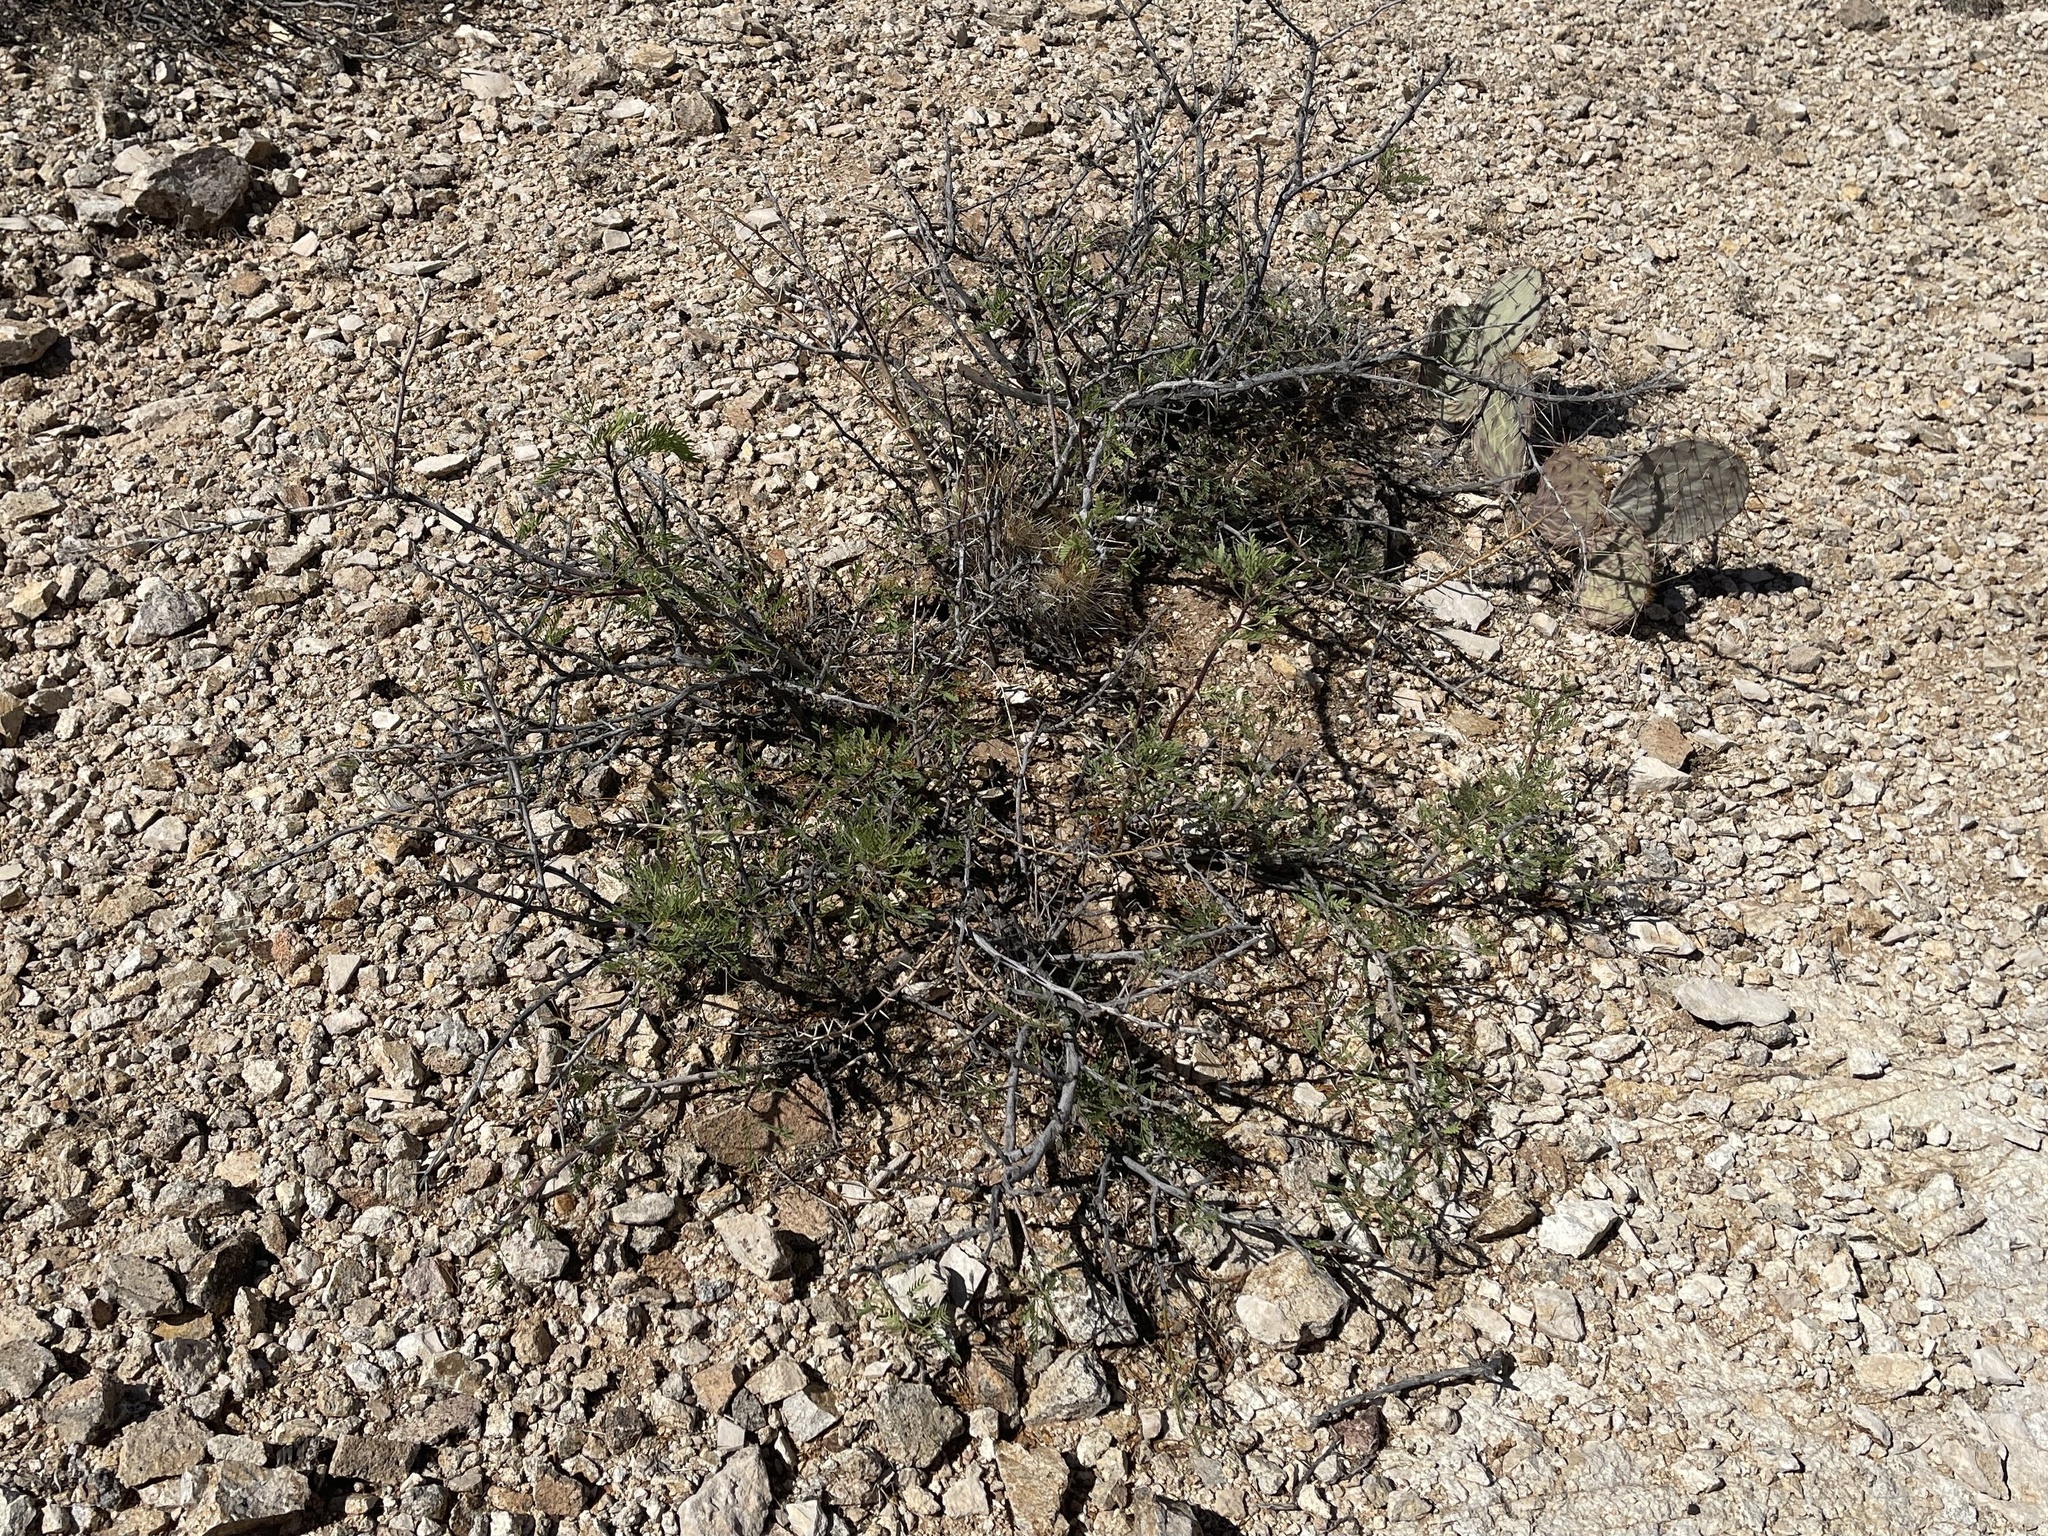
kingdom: Plantae
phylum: Tracheophyta
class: Magnoliopsida
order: Fabales
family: Fabaceae
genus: Prosopis
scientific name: Prosopis glandulosa
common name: Honey mesquite
